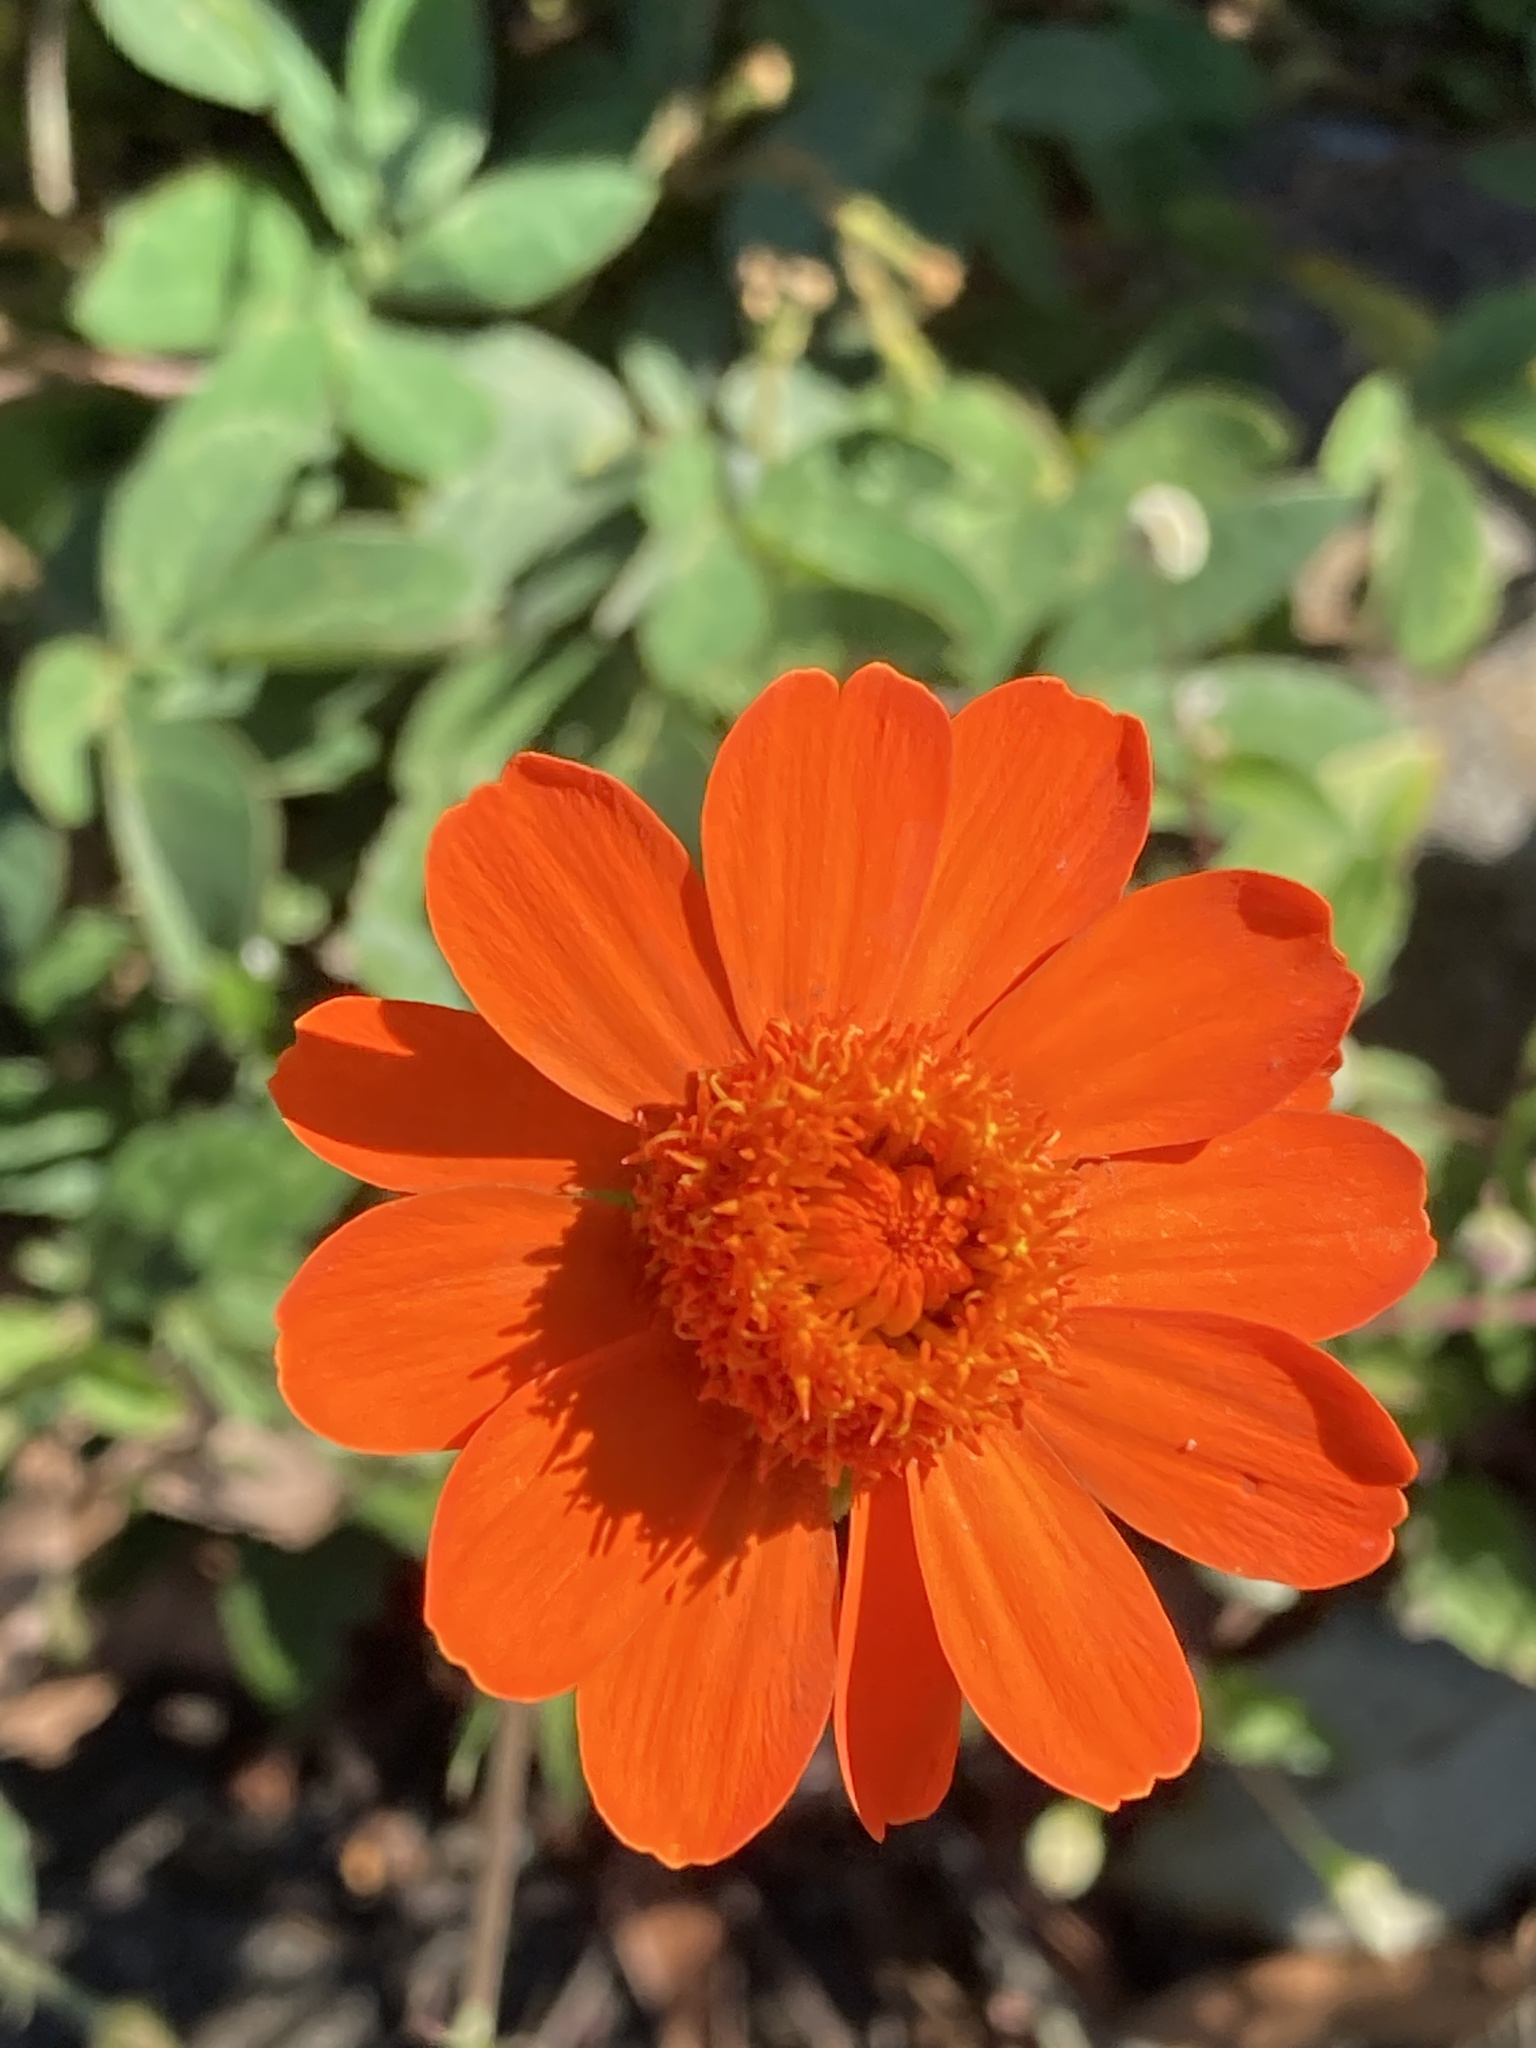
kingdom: Plantae
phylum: Tracheophyta
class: Magnoliopsida
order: Asterales
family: Asteraceae
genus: Comaclinium
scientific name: Comaclinium montanum
